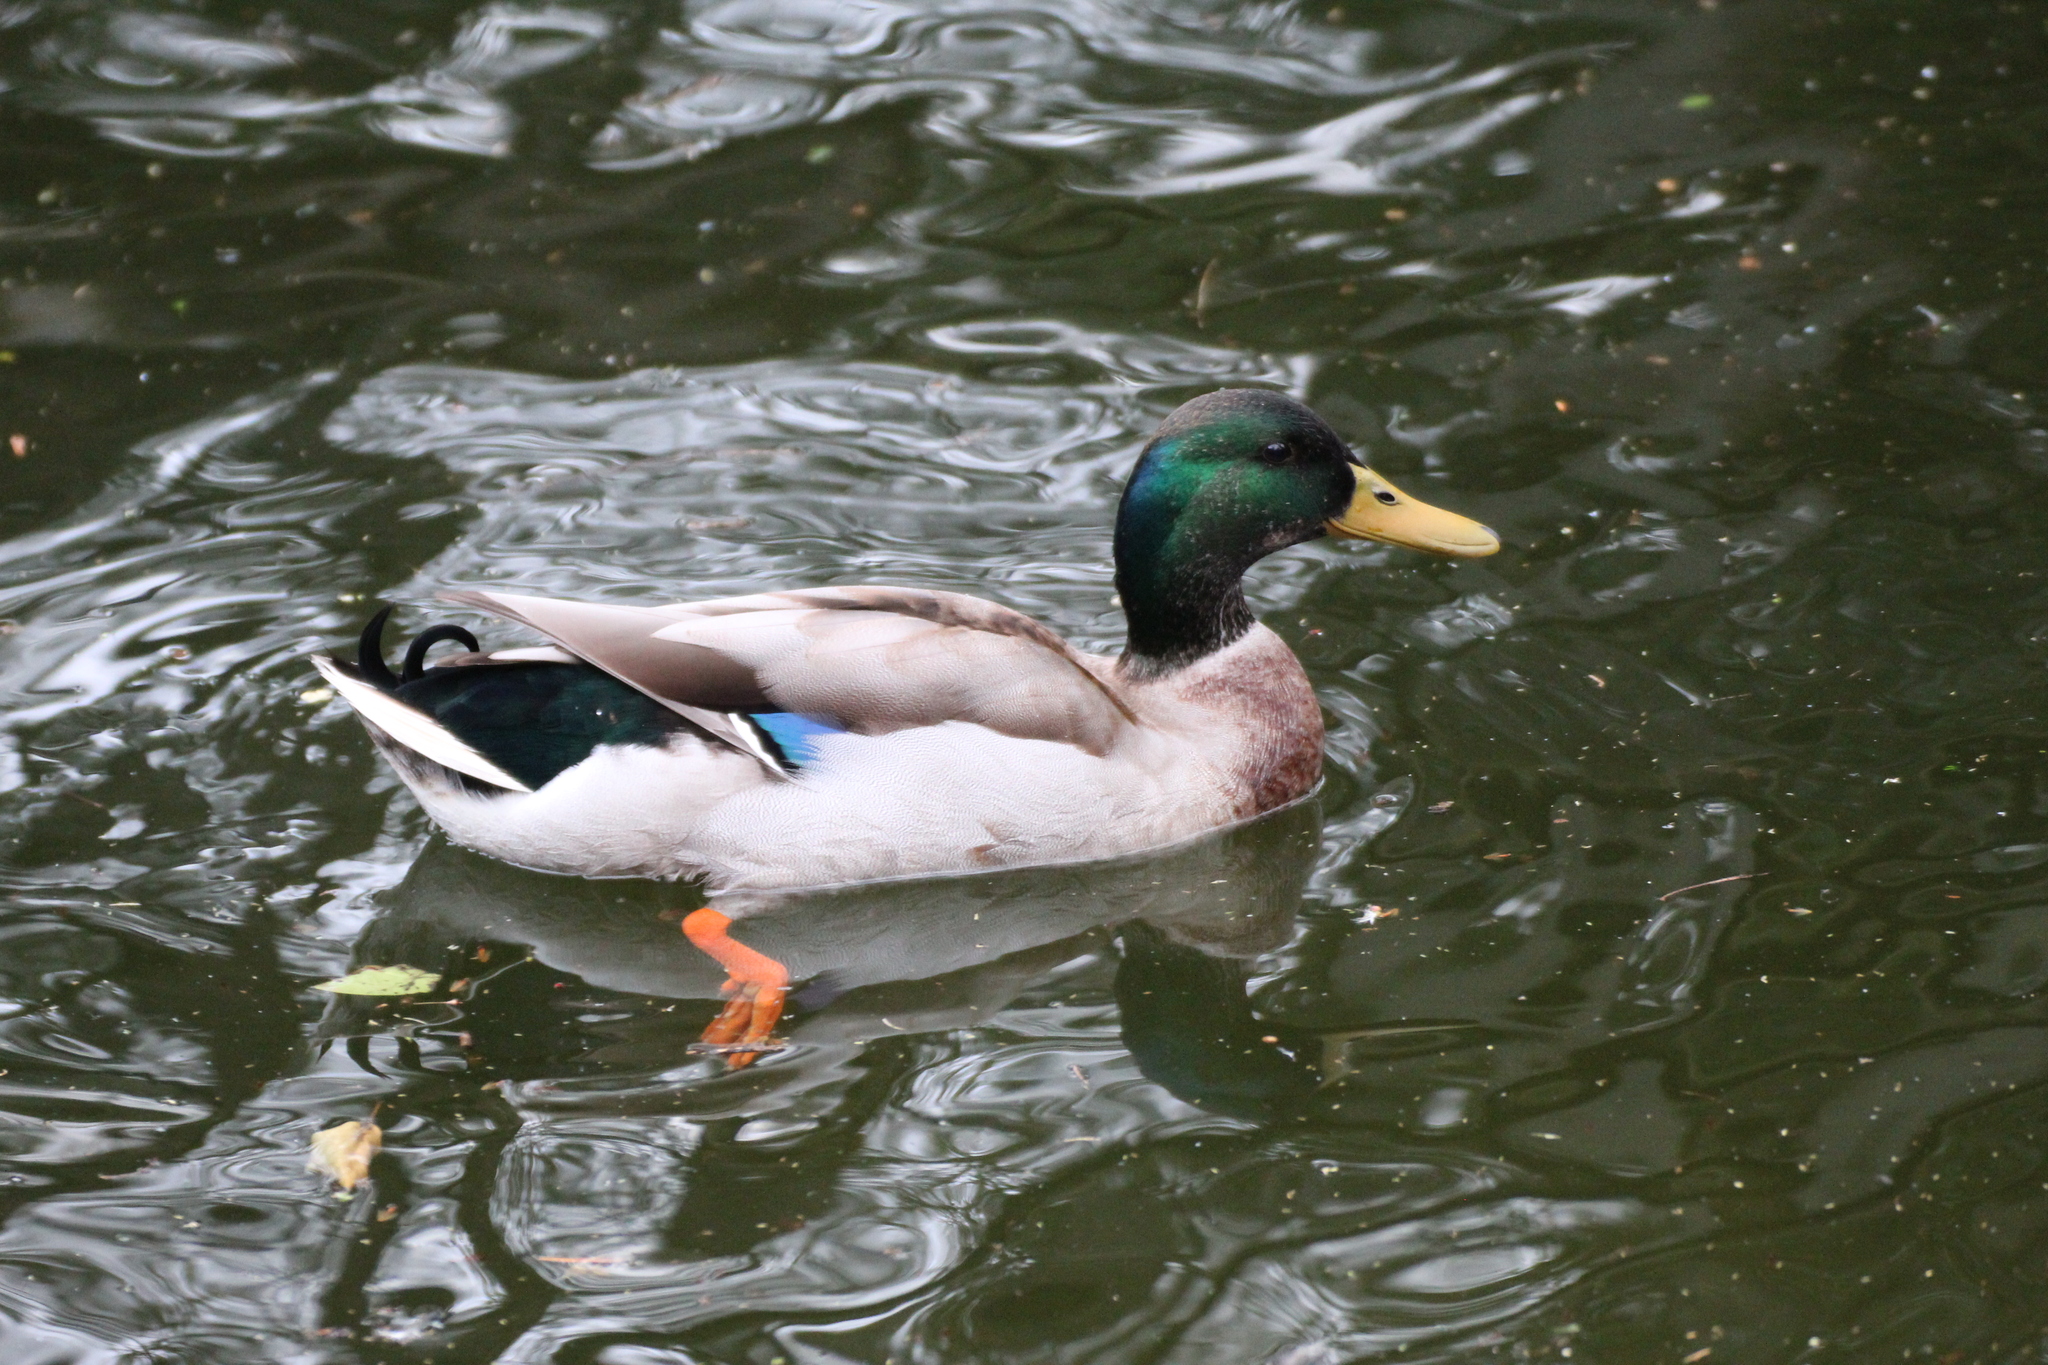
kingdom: Animalia
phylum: Chordata
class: Aves
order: Anseriformes
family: Anatidae
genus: Anas
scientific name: Anas platyrhynchos
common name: Mallard
